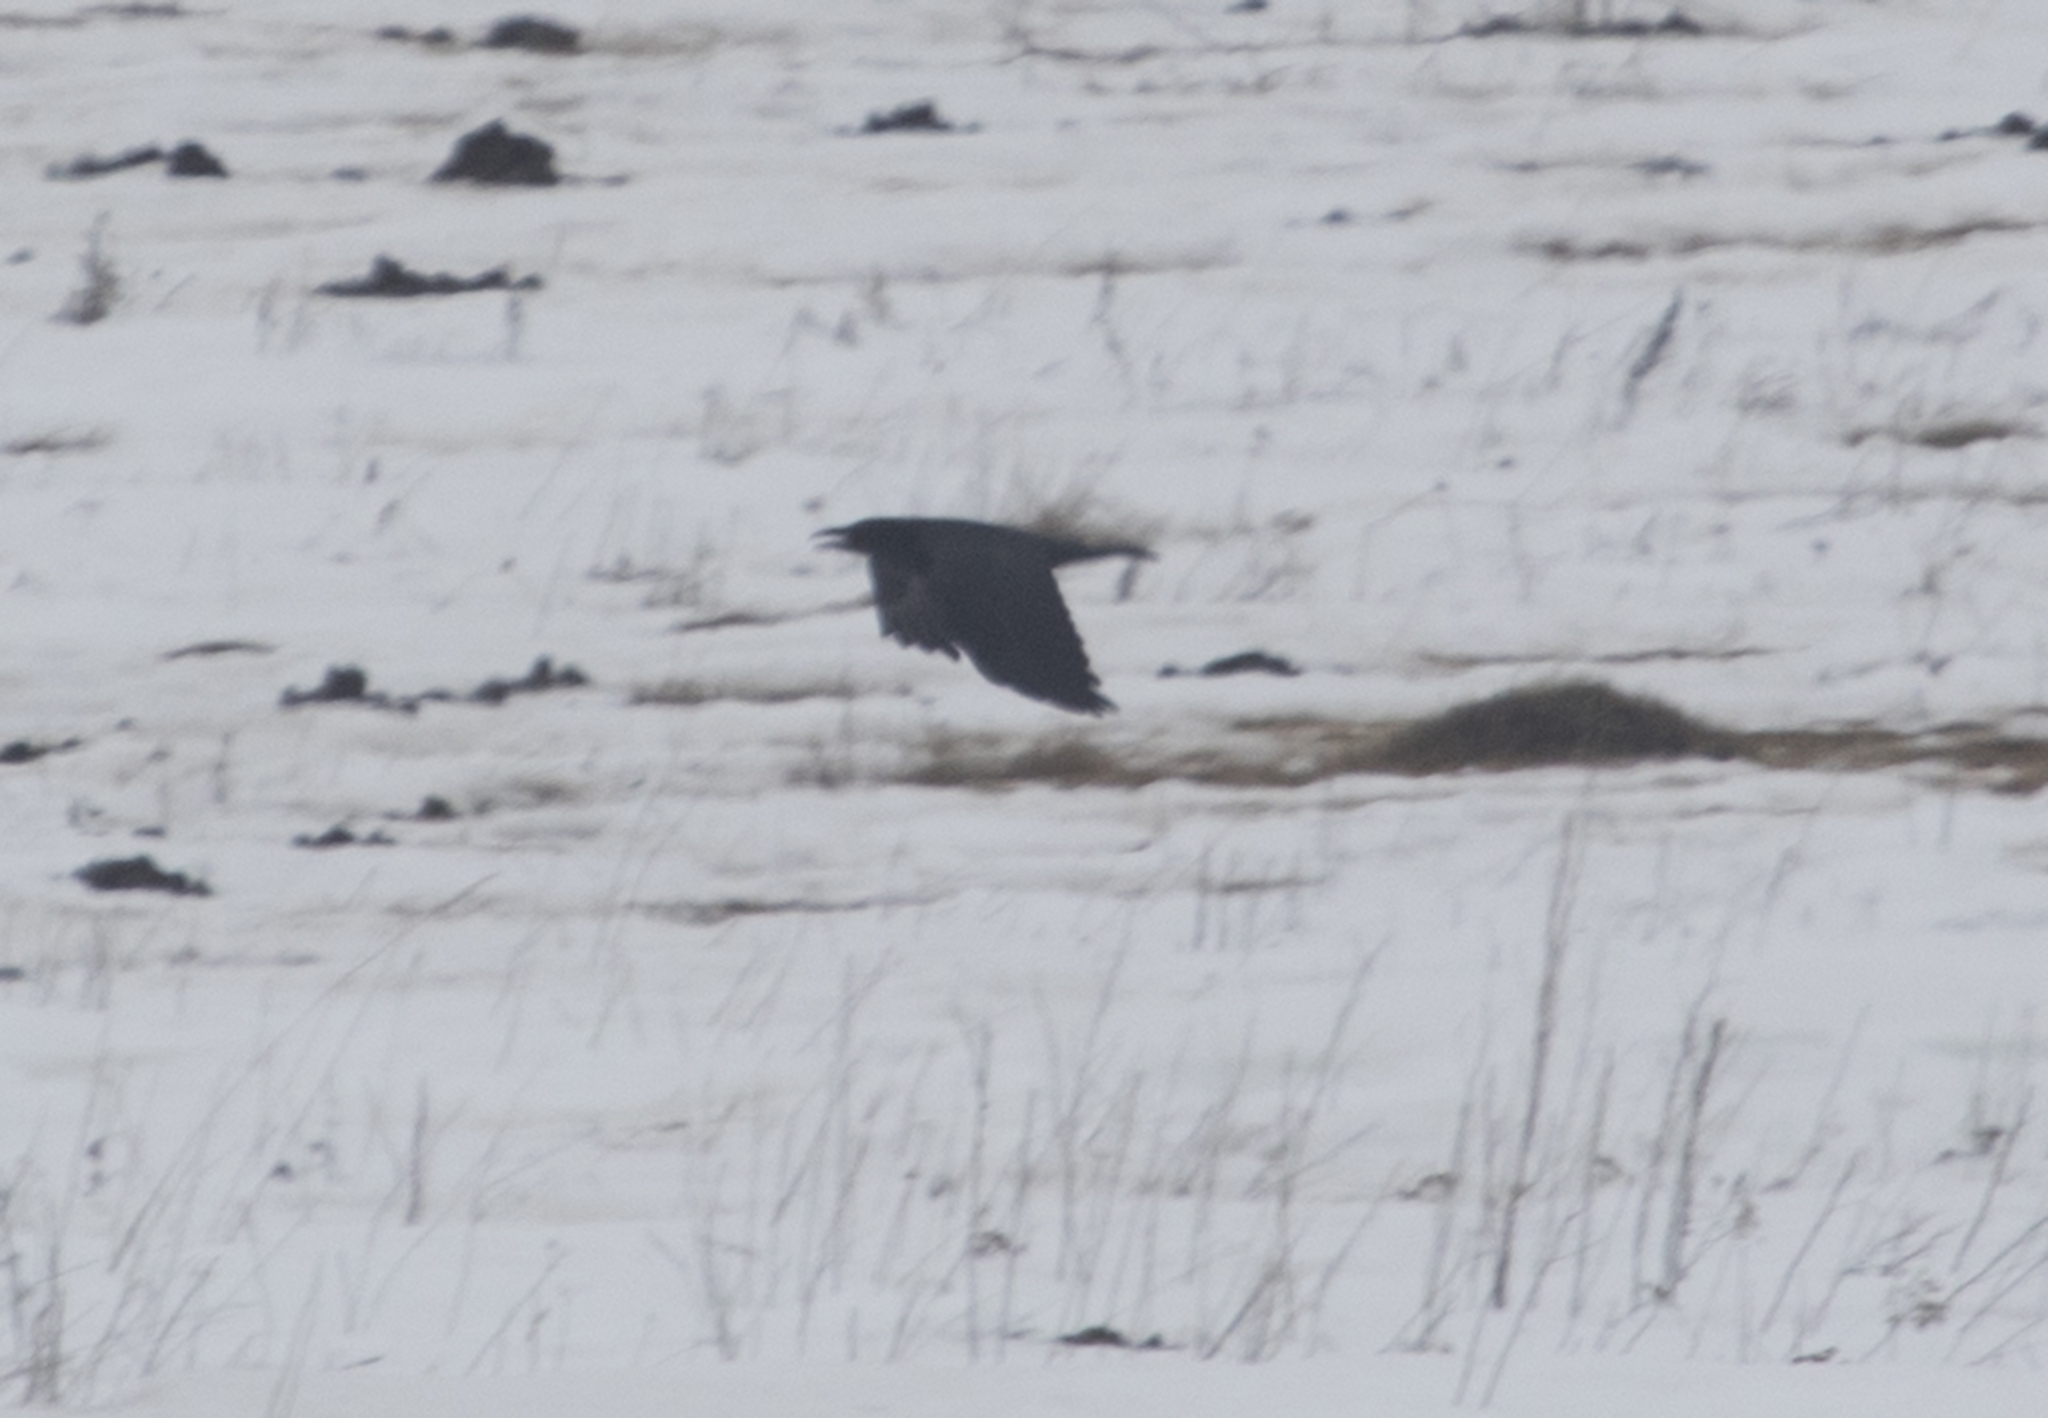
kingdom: Animalia
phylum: Chordata
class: Aves
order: Passeriformes
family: Corvidae
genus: Corvus
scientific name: Corvus corax
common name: Common raven
